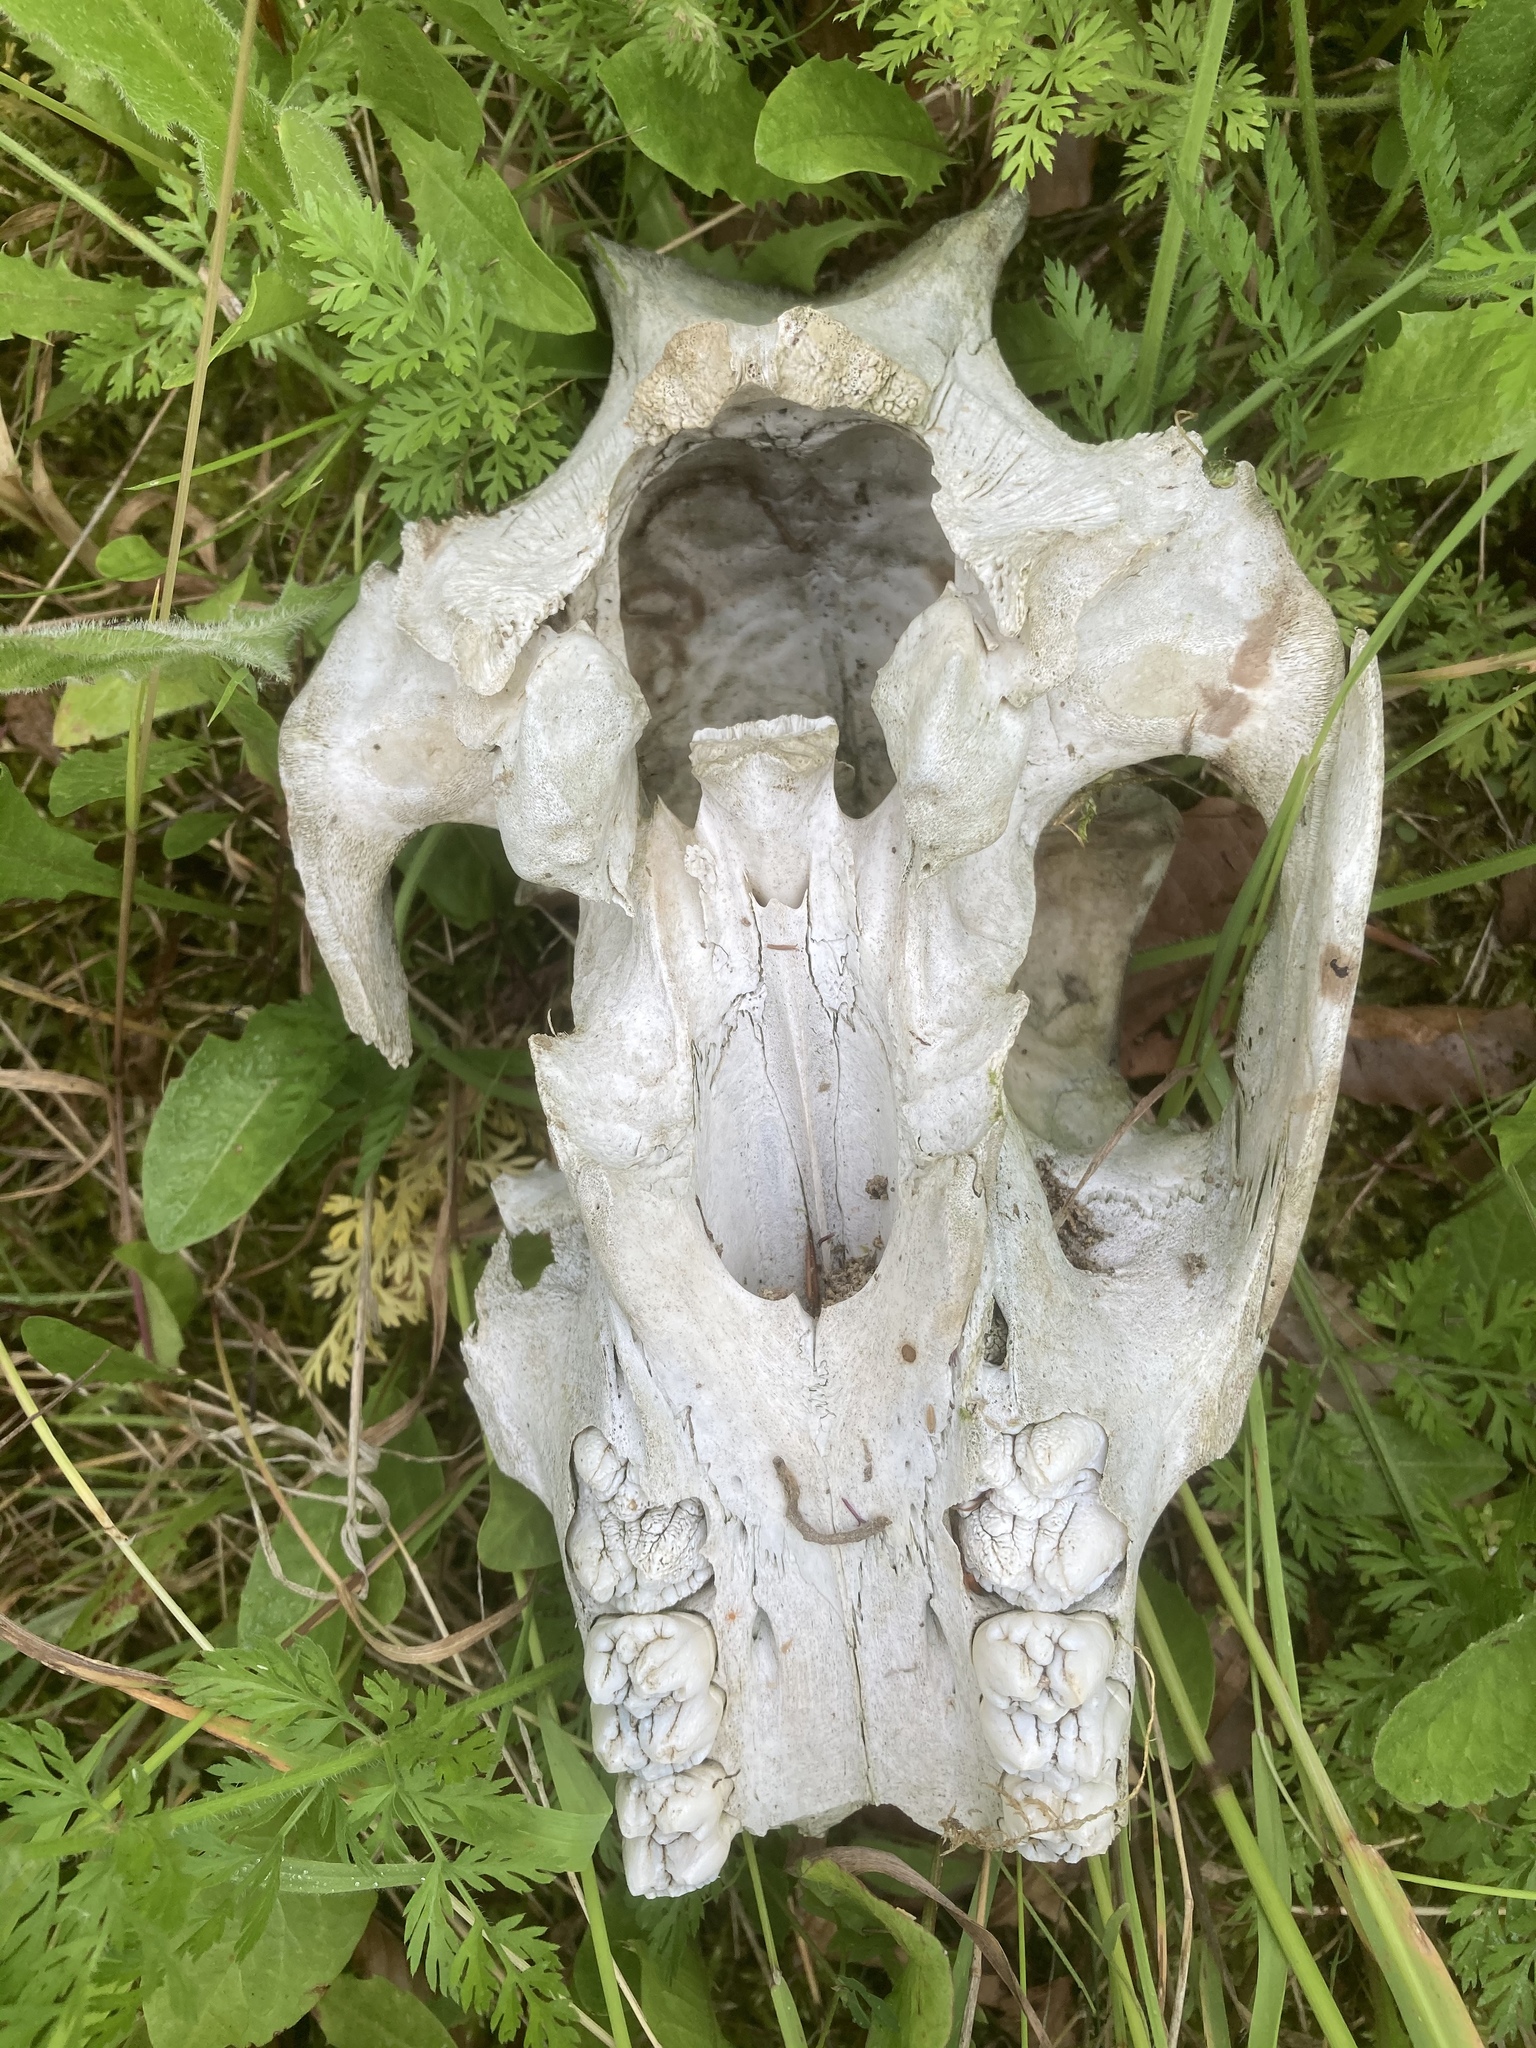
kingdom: Animalia
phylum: Chordata
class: Mammalia
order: Artiodactyla
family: Suidae
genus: Sus
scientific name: Sus scrofa
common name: Wild boar
